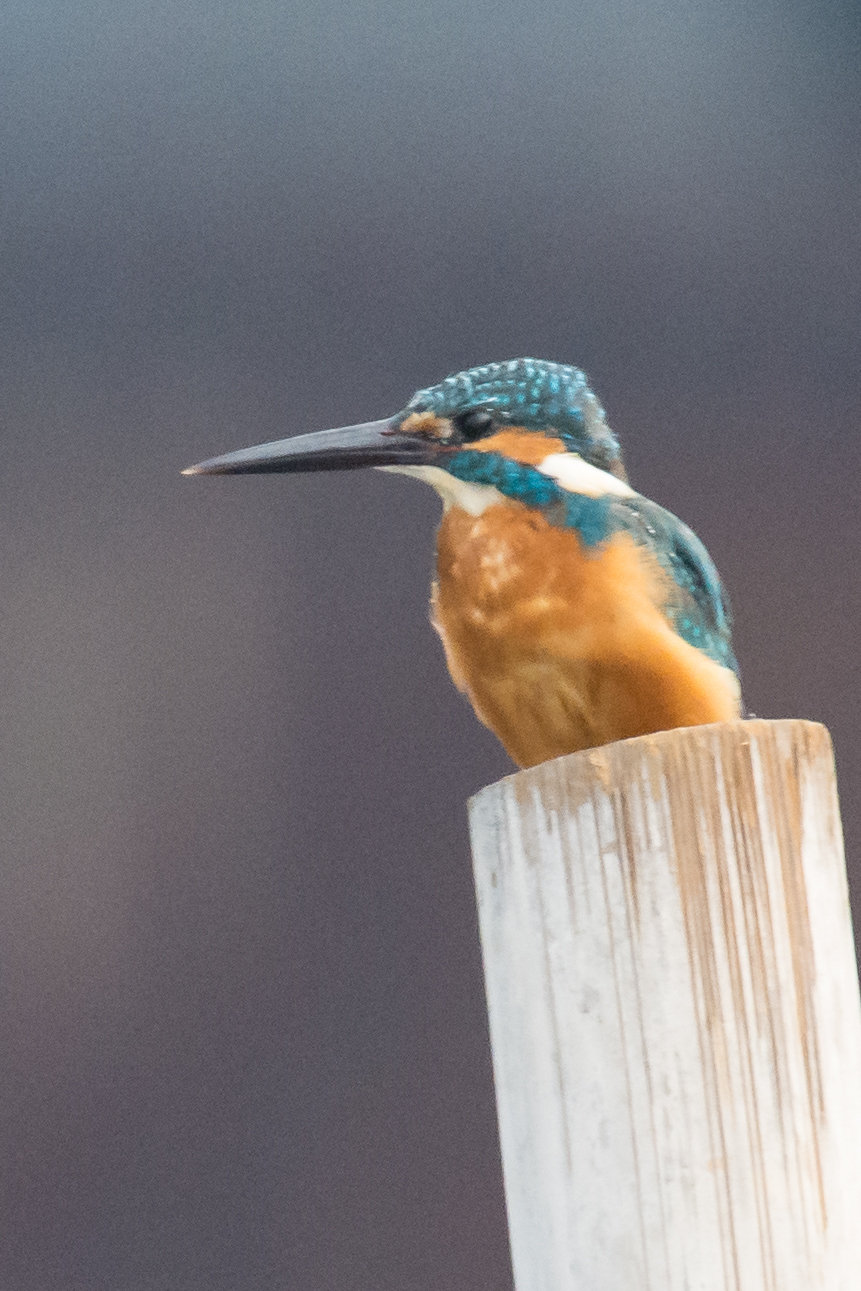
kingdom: Animalia
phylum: Chordata
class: Aves
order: Coraciiformes
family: Alcedinidae
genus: Alcedo
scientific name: Alcedo atthis
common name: Common kingfisher
